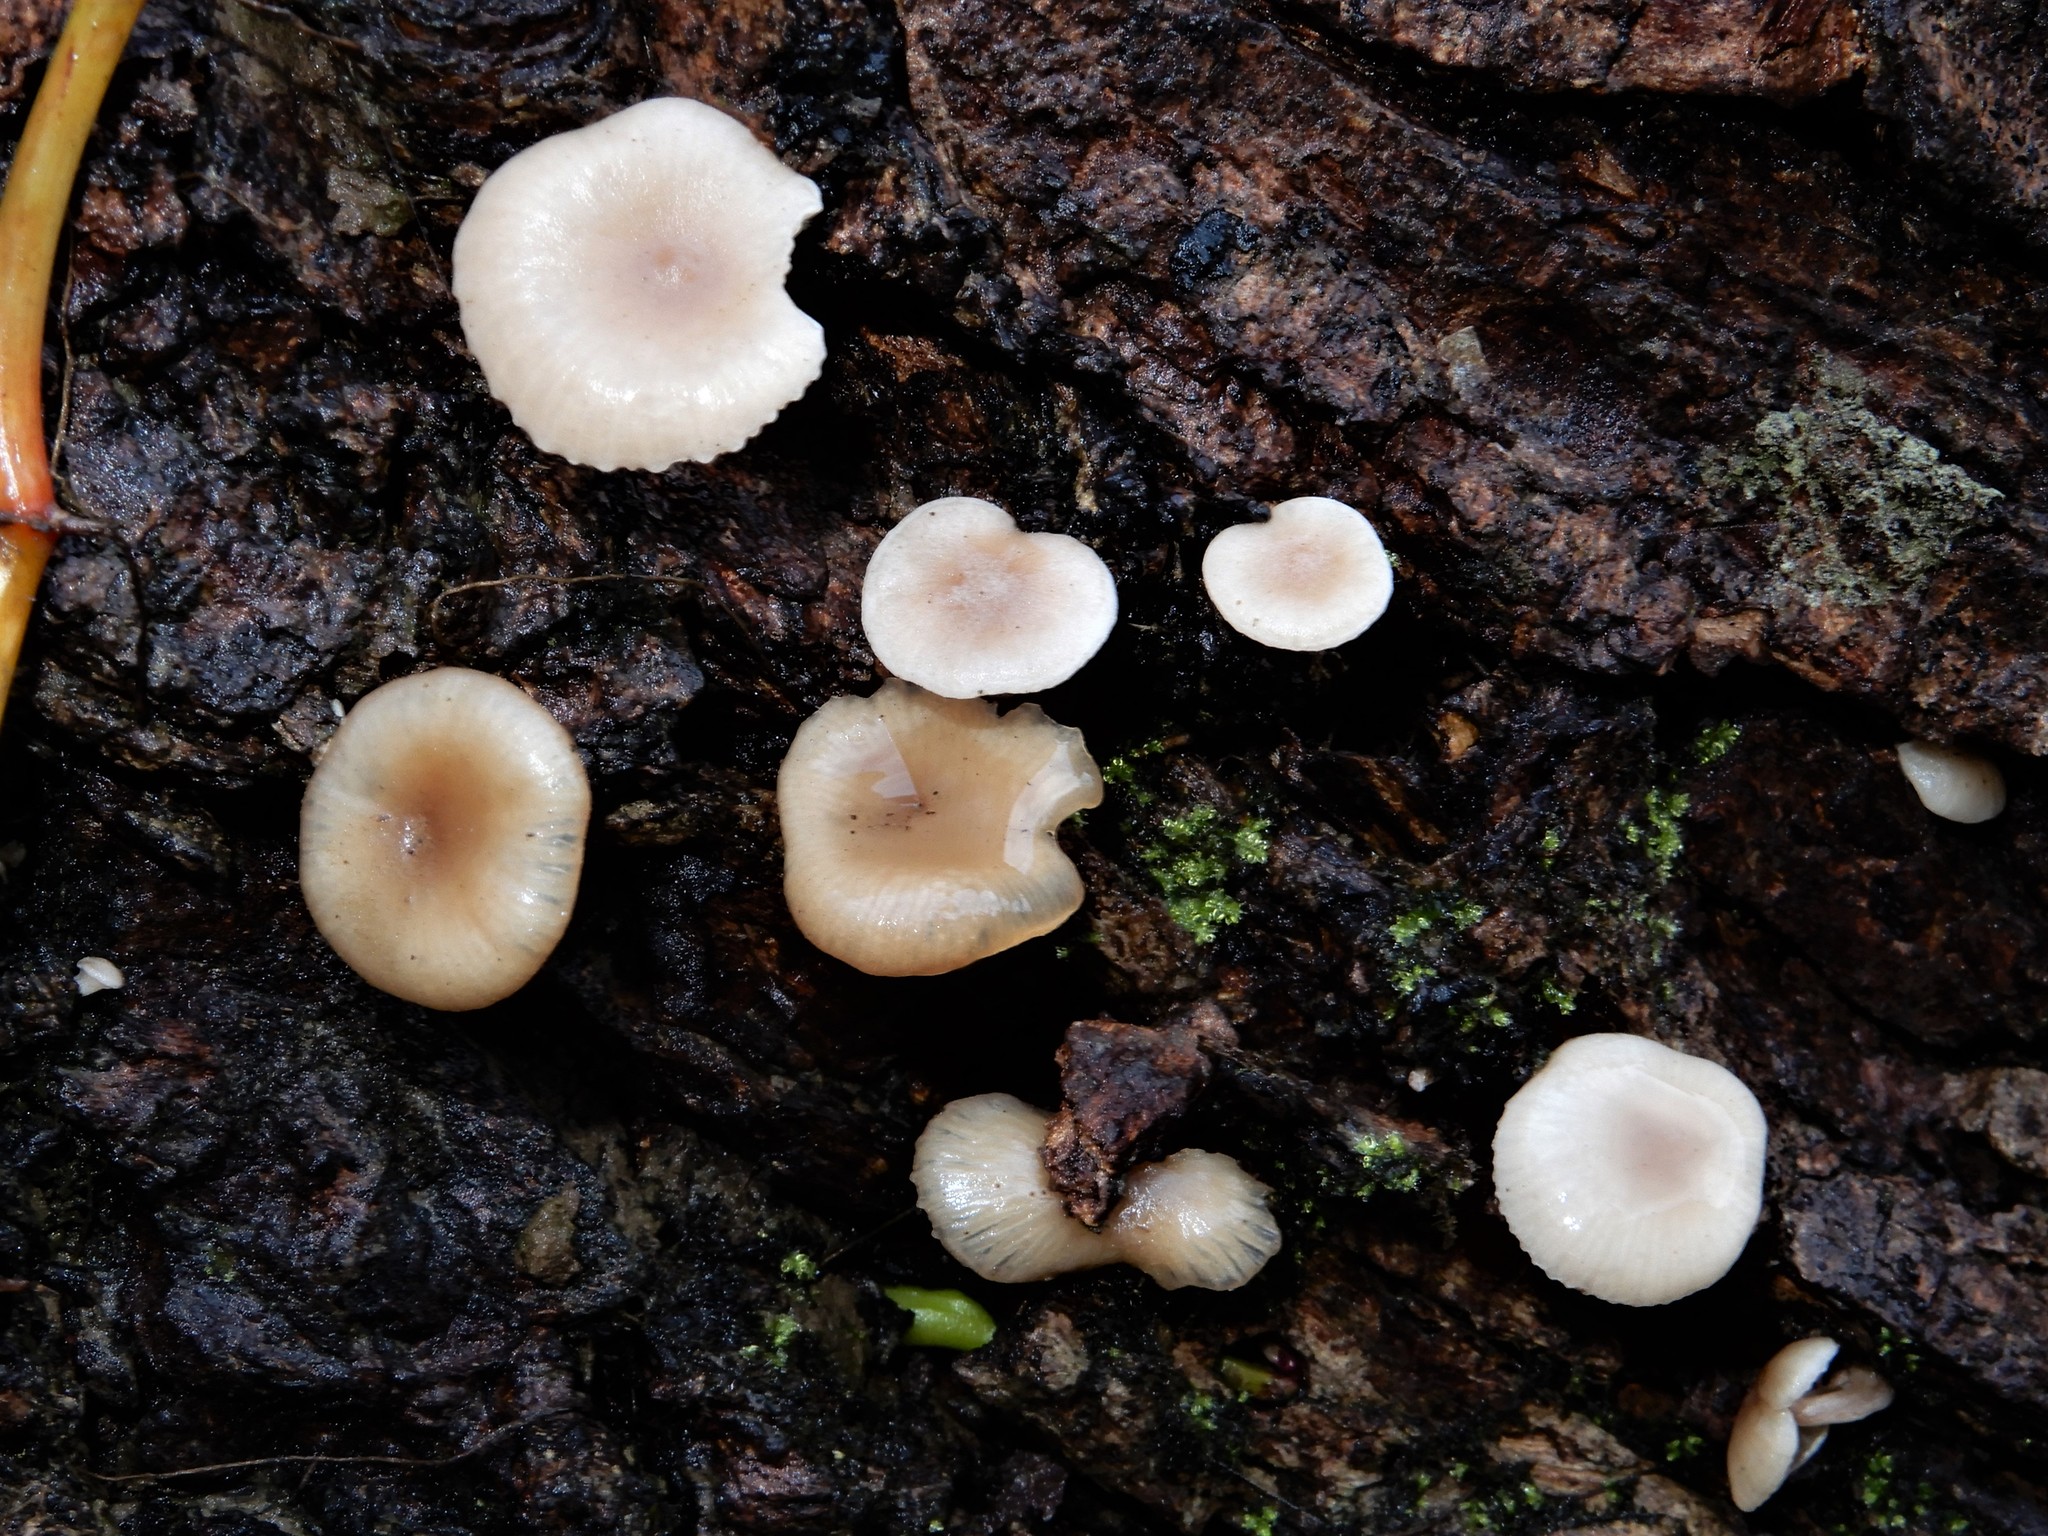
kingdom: Fungi
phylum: Basidiomycota
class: Agaricomycetes
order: Agaricales
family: Tricholomataceae
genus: Clitocybe
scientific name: Clitocybe wellingtonensis
